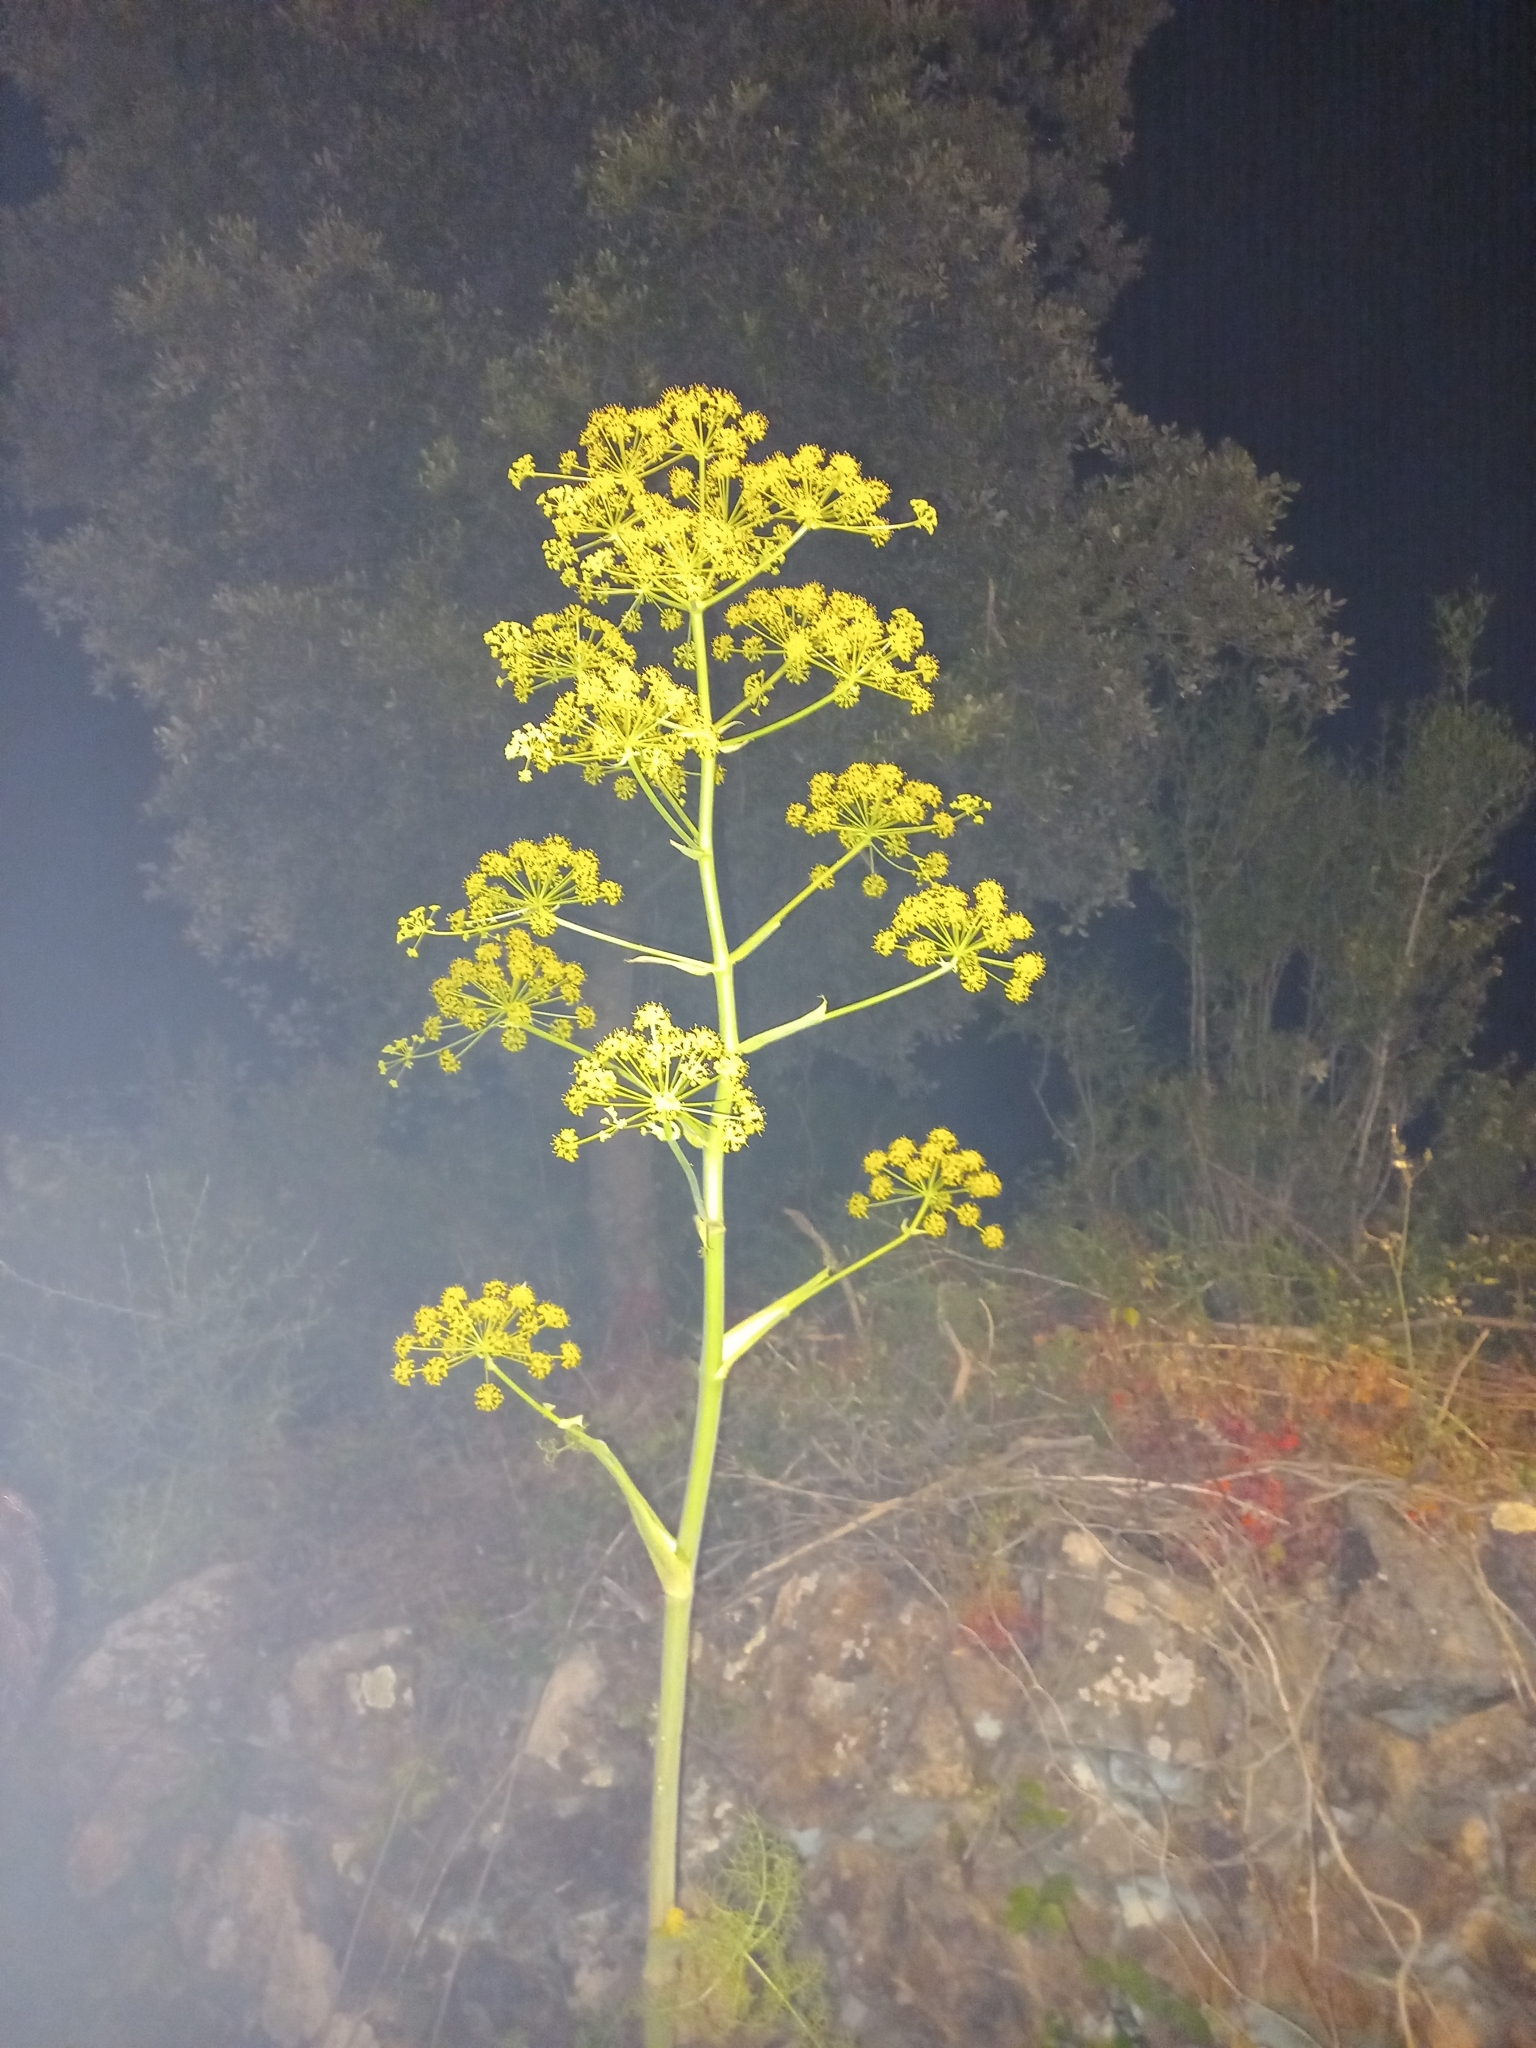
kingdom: Plantae
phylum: Tracheophyta
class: Magnoliopsida
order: Apiales
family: Apiaceae
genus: Ferula
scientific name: Ferula communis
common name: Giant fennel
